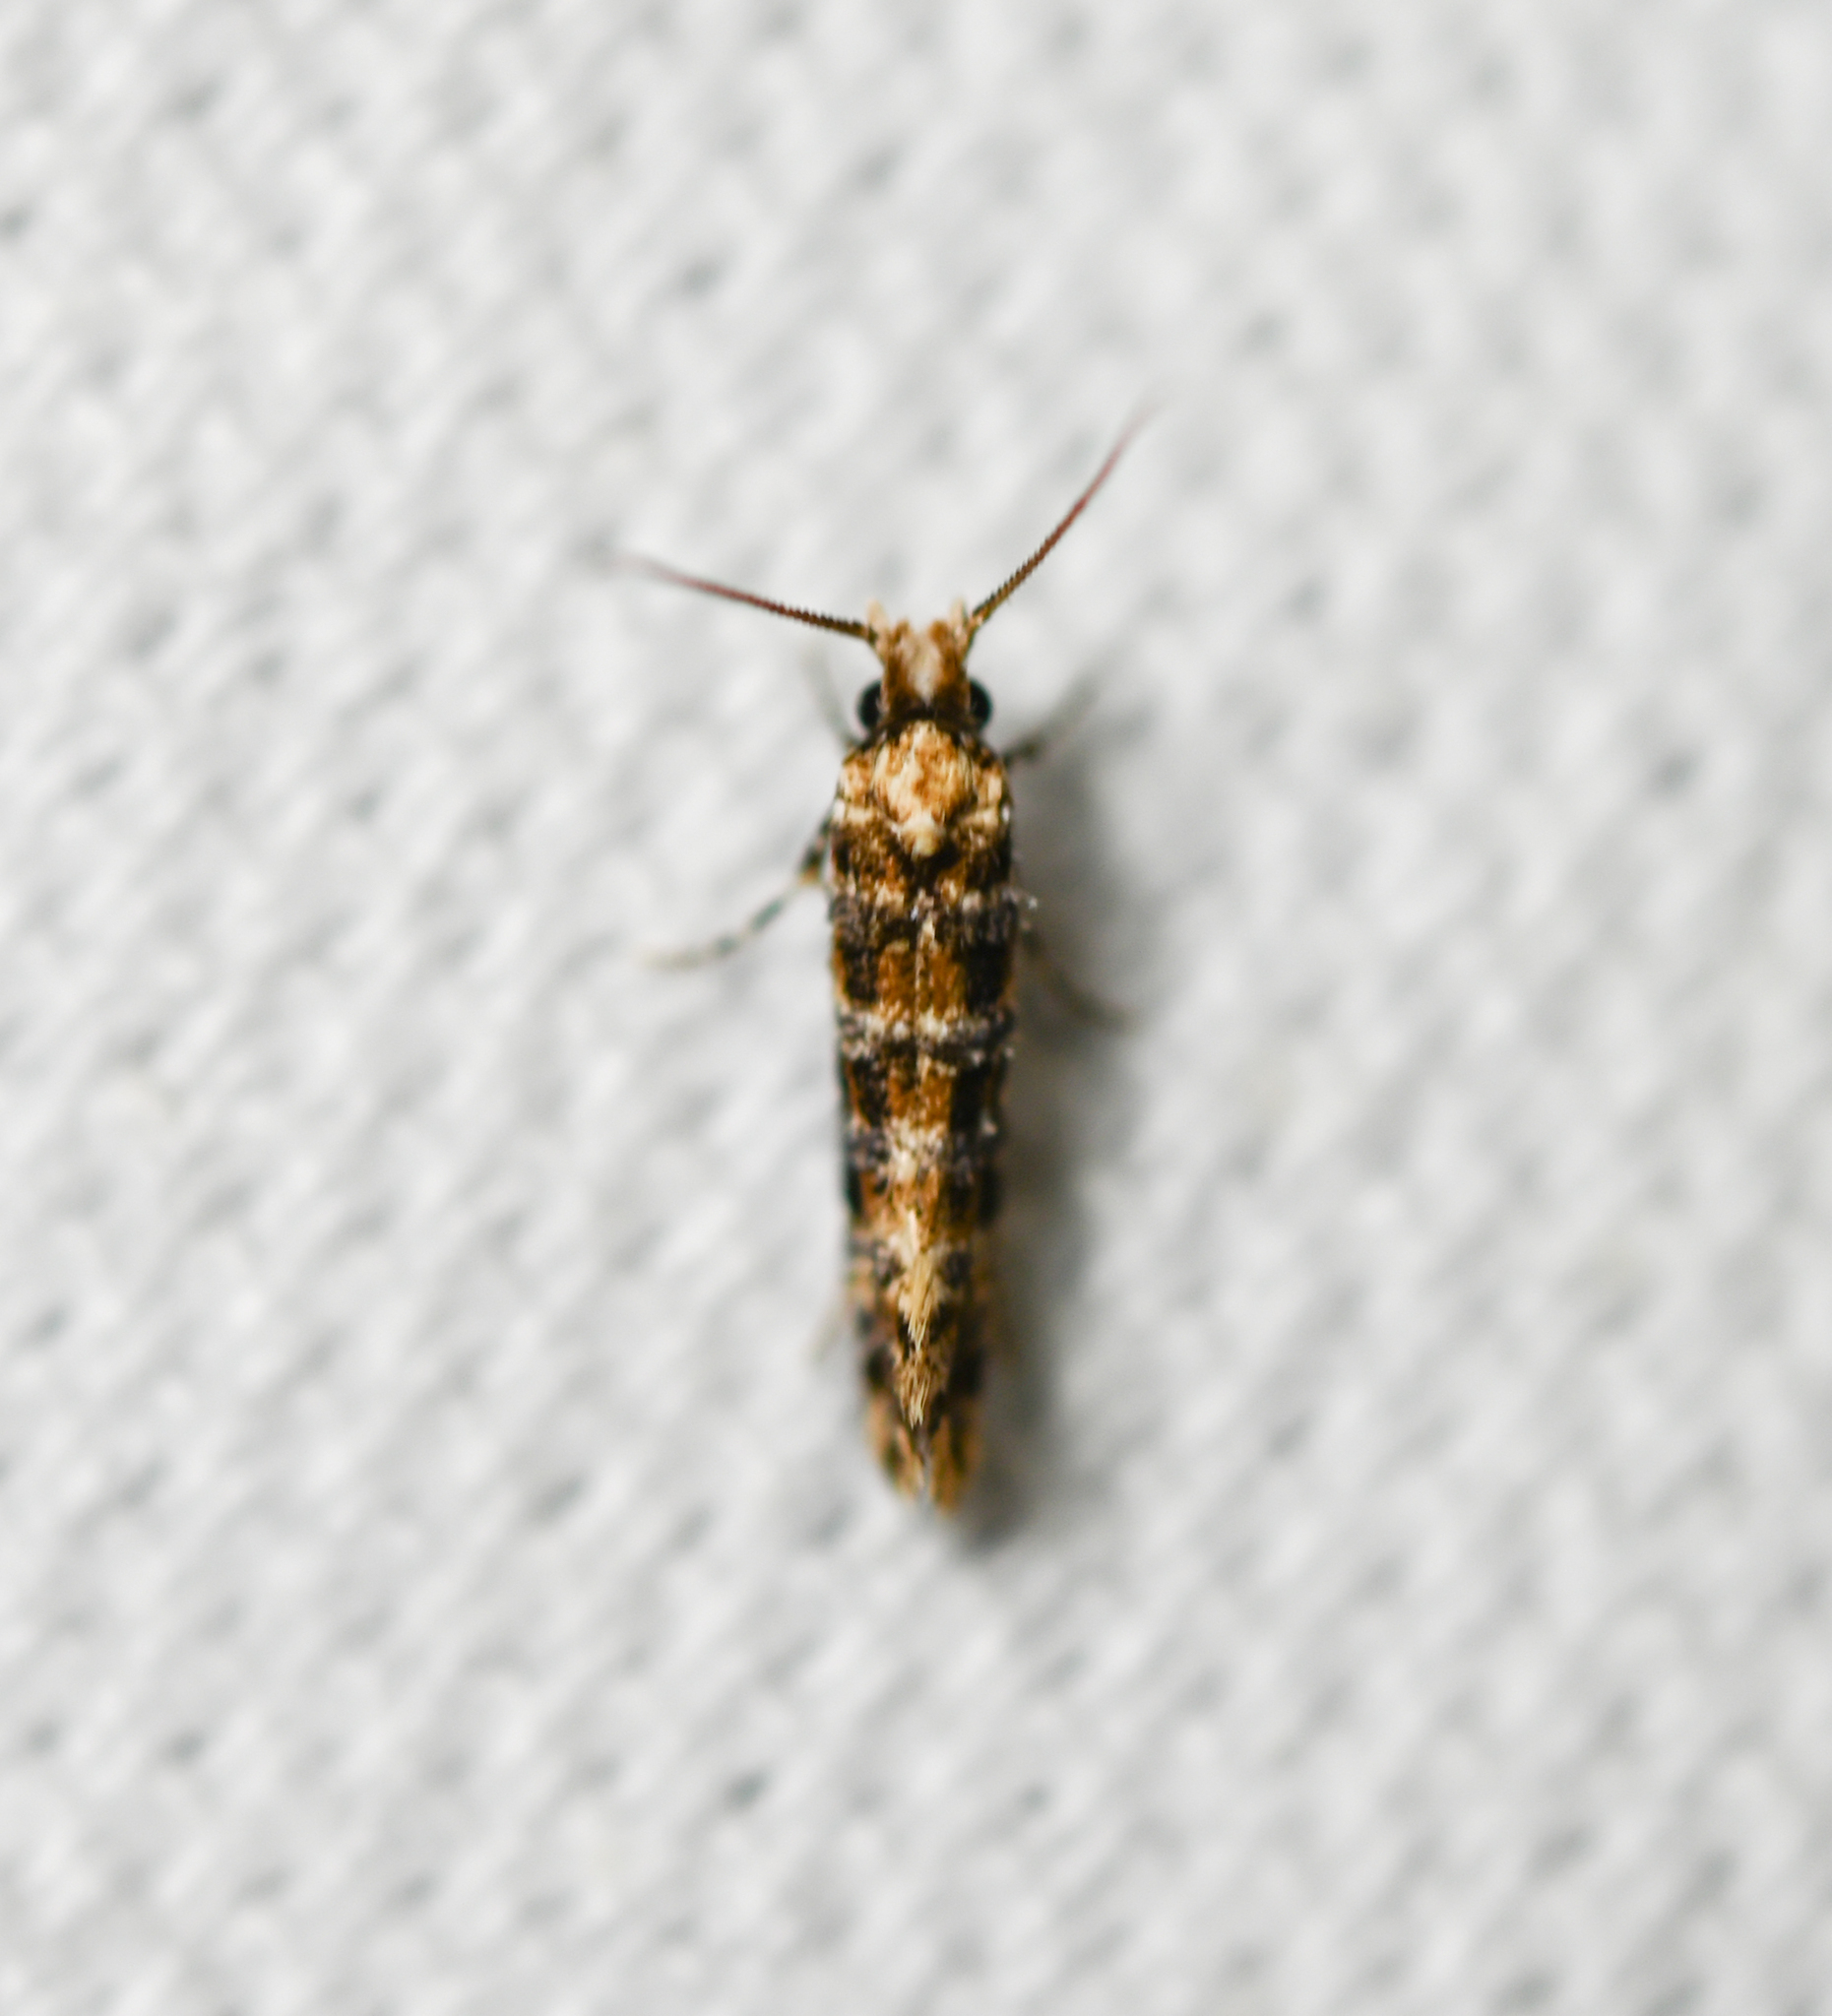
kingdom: Animalia
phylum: Arthropoda
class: Insecta
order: Lepidoptera
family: Tineidae
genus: Xylesthia
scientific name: Xylesthia pruniramiella
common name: Clemens' bark moth
